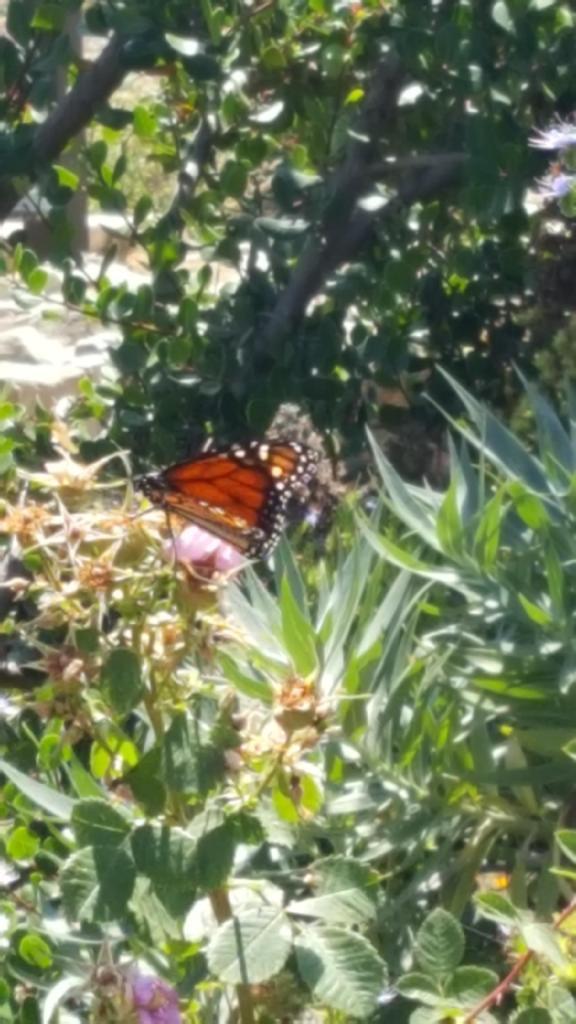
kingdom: Animalia
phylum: Arthropoda
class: Insecta
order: Lepidoptera
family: Nymphalidae
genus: Danaus
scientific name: Danaus plexippus
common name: Monarch
